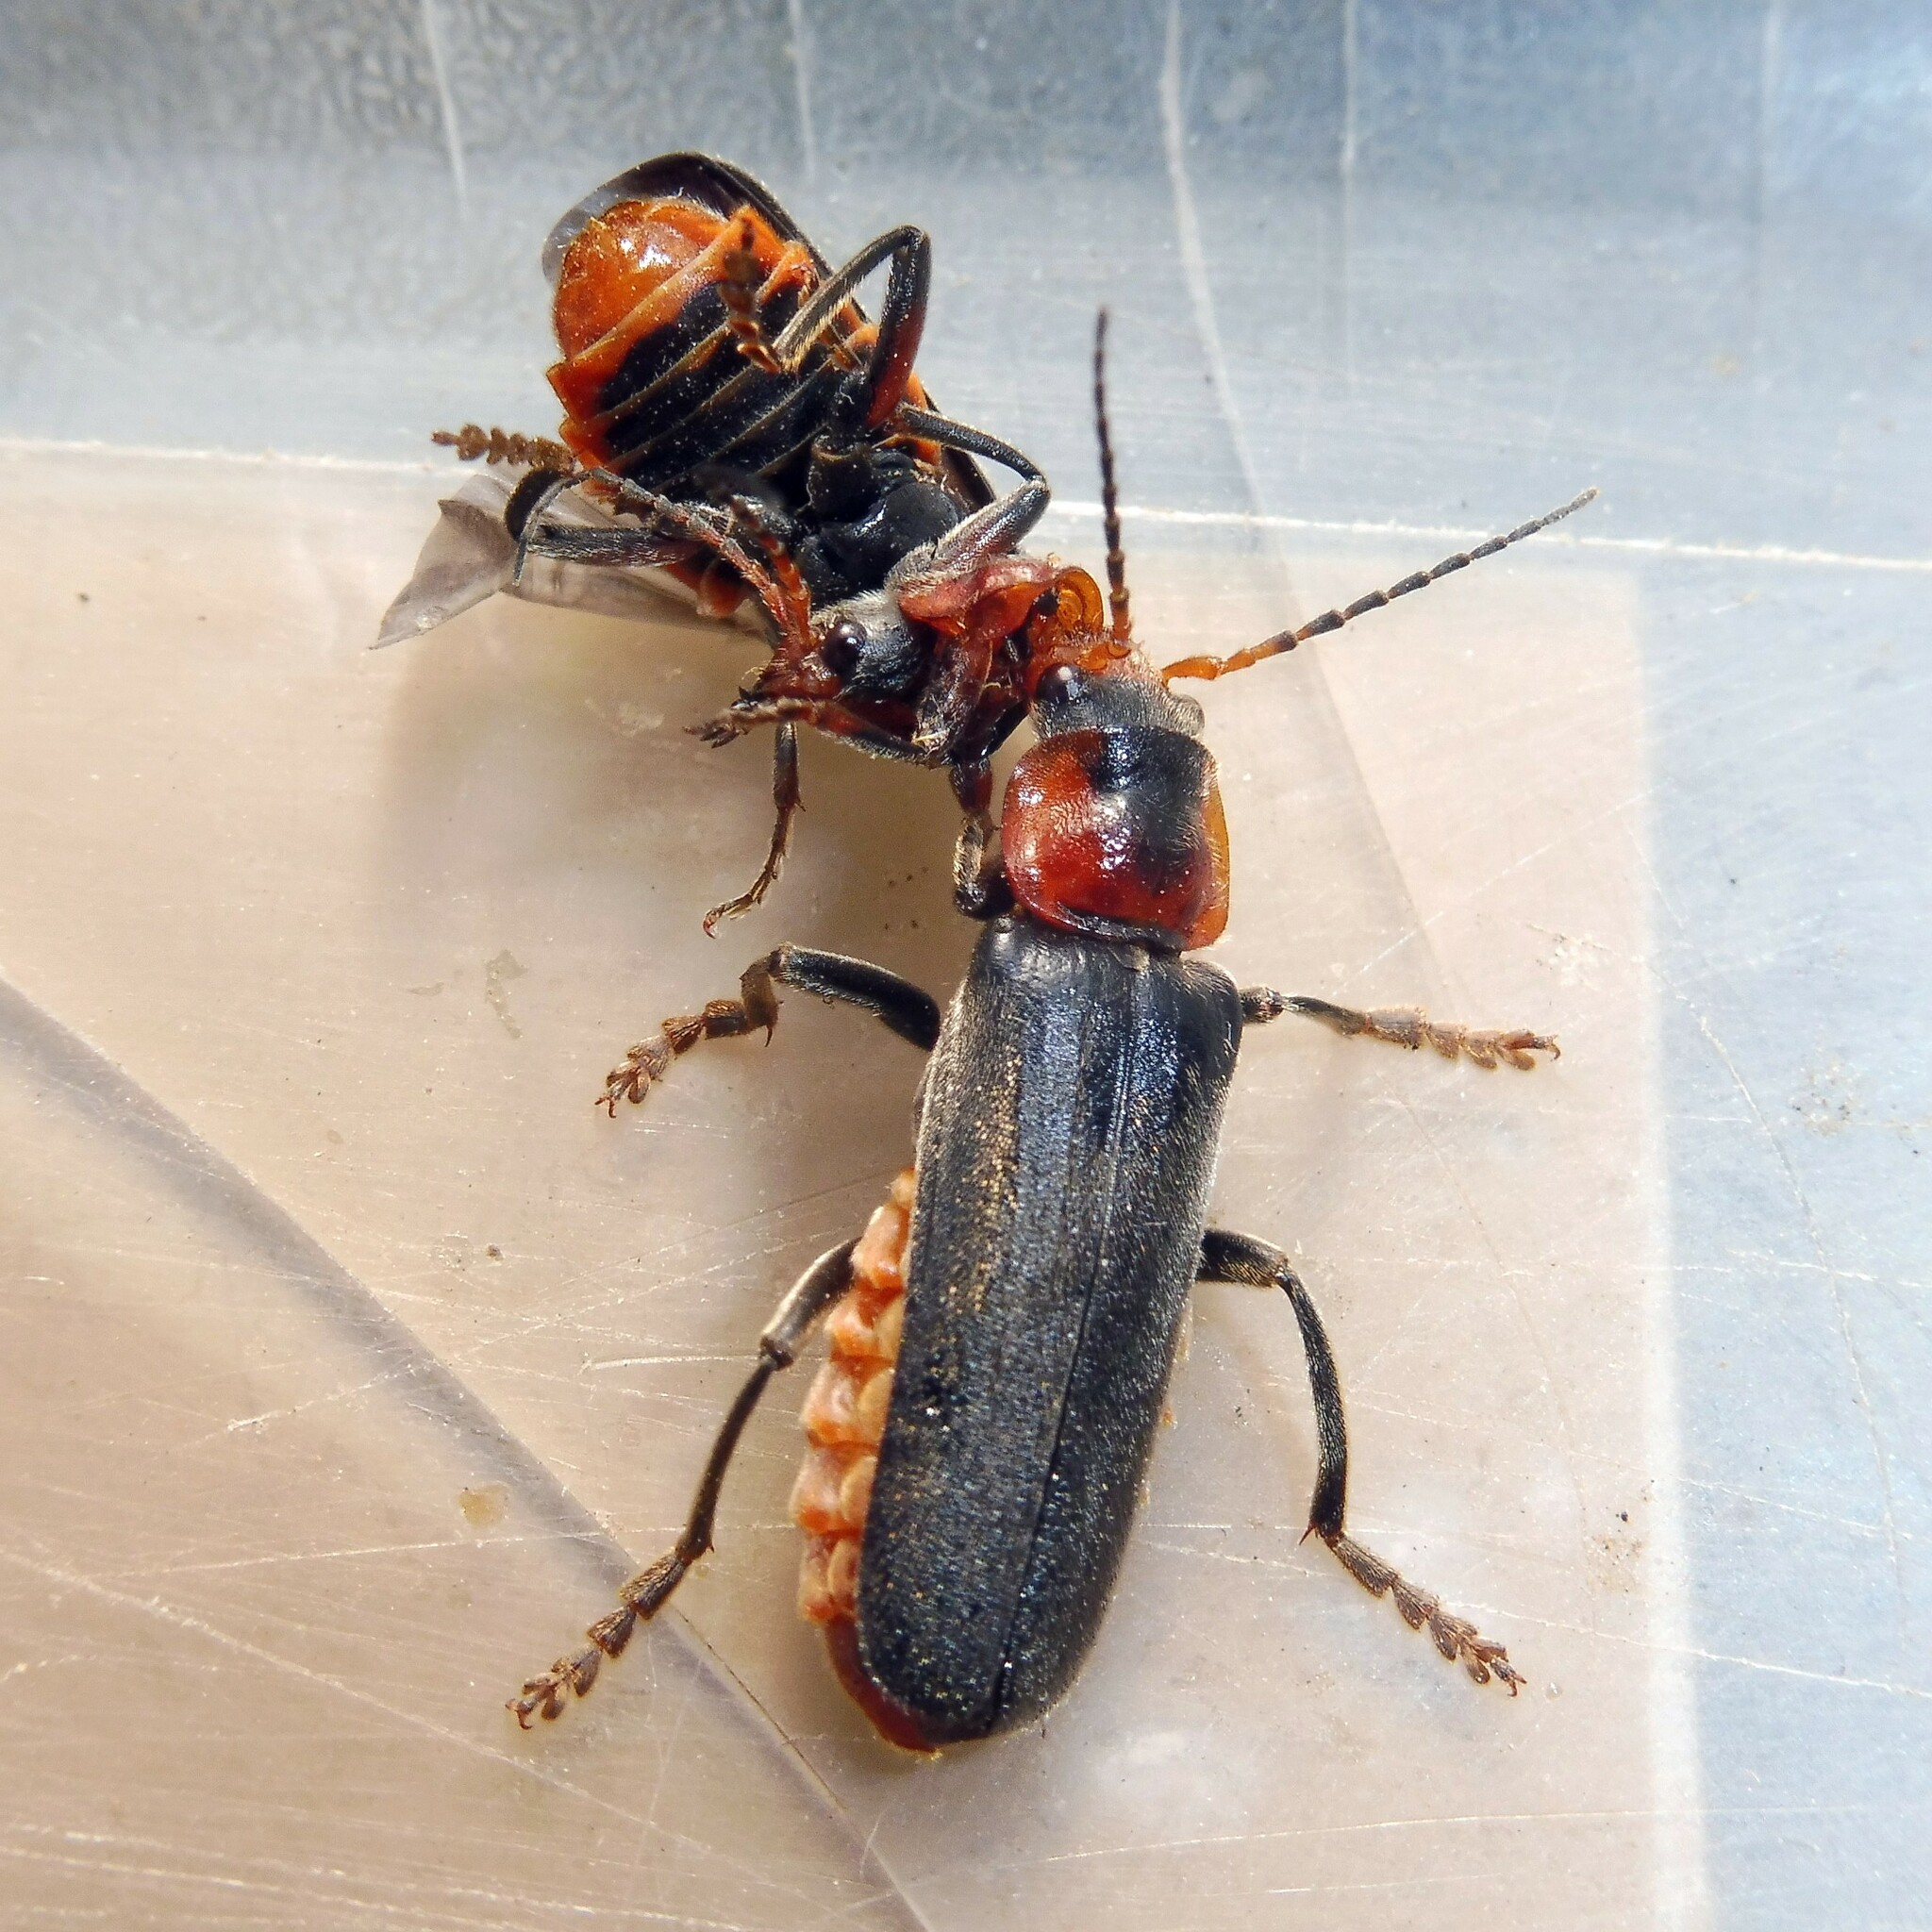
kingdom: Animalia
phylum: Arthropoda
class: Insecta
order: Coleoptera
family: Cantharidae
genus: Cantharis
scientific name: Cantharis fusca
